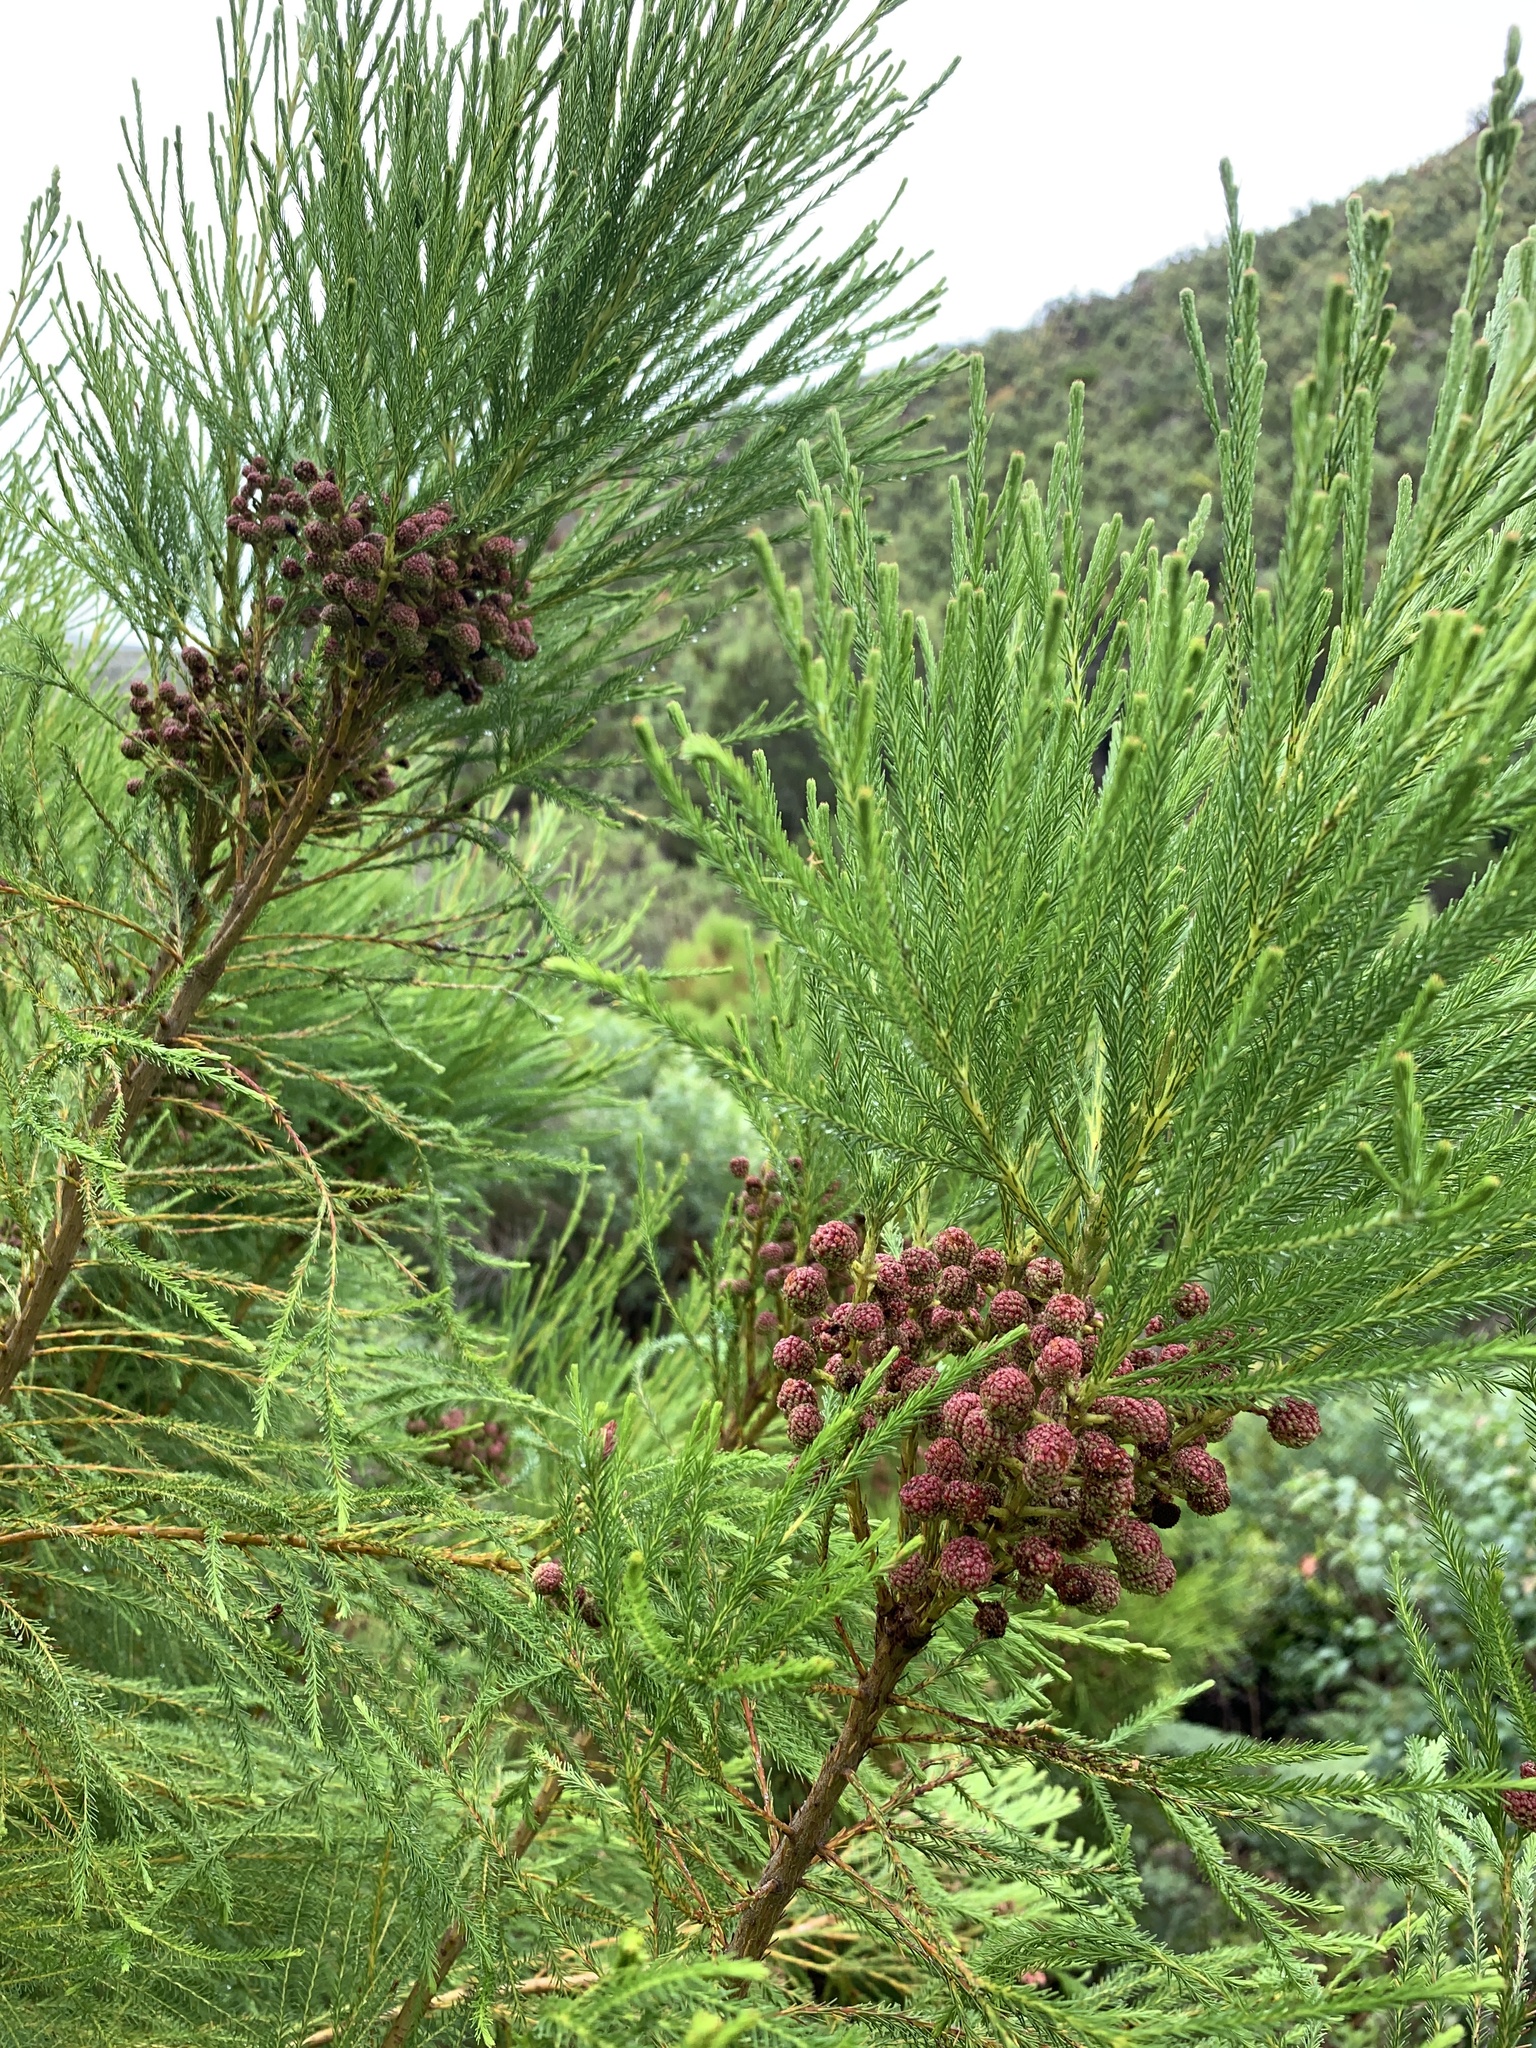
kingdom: Plantae
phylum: Tracheophyta
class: Magnoliopsida
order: Bruniales
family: Bruniaceae
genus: Berzelia
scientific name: Berzelia lanuginosa
